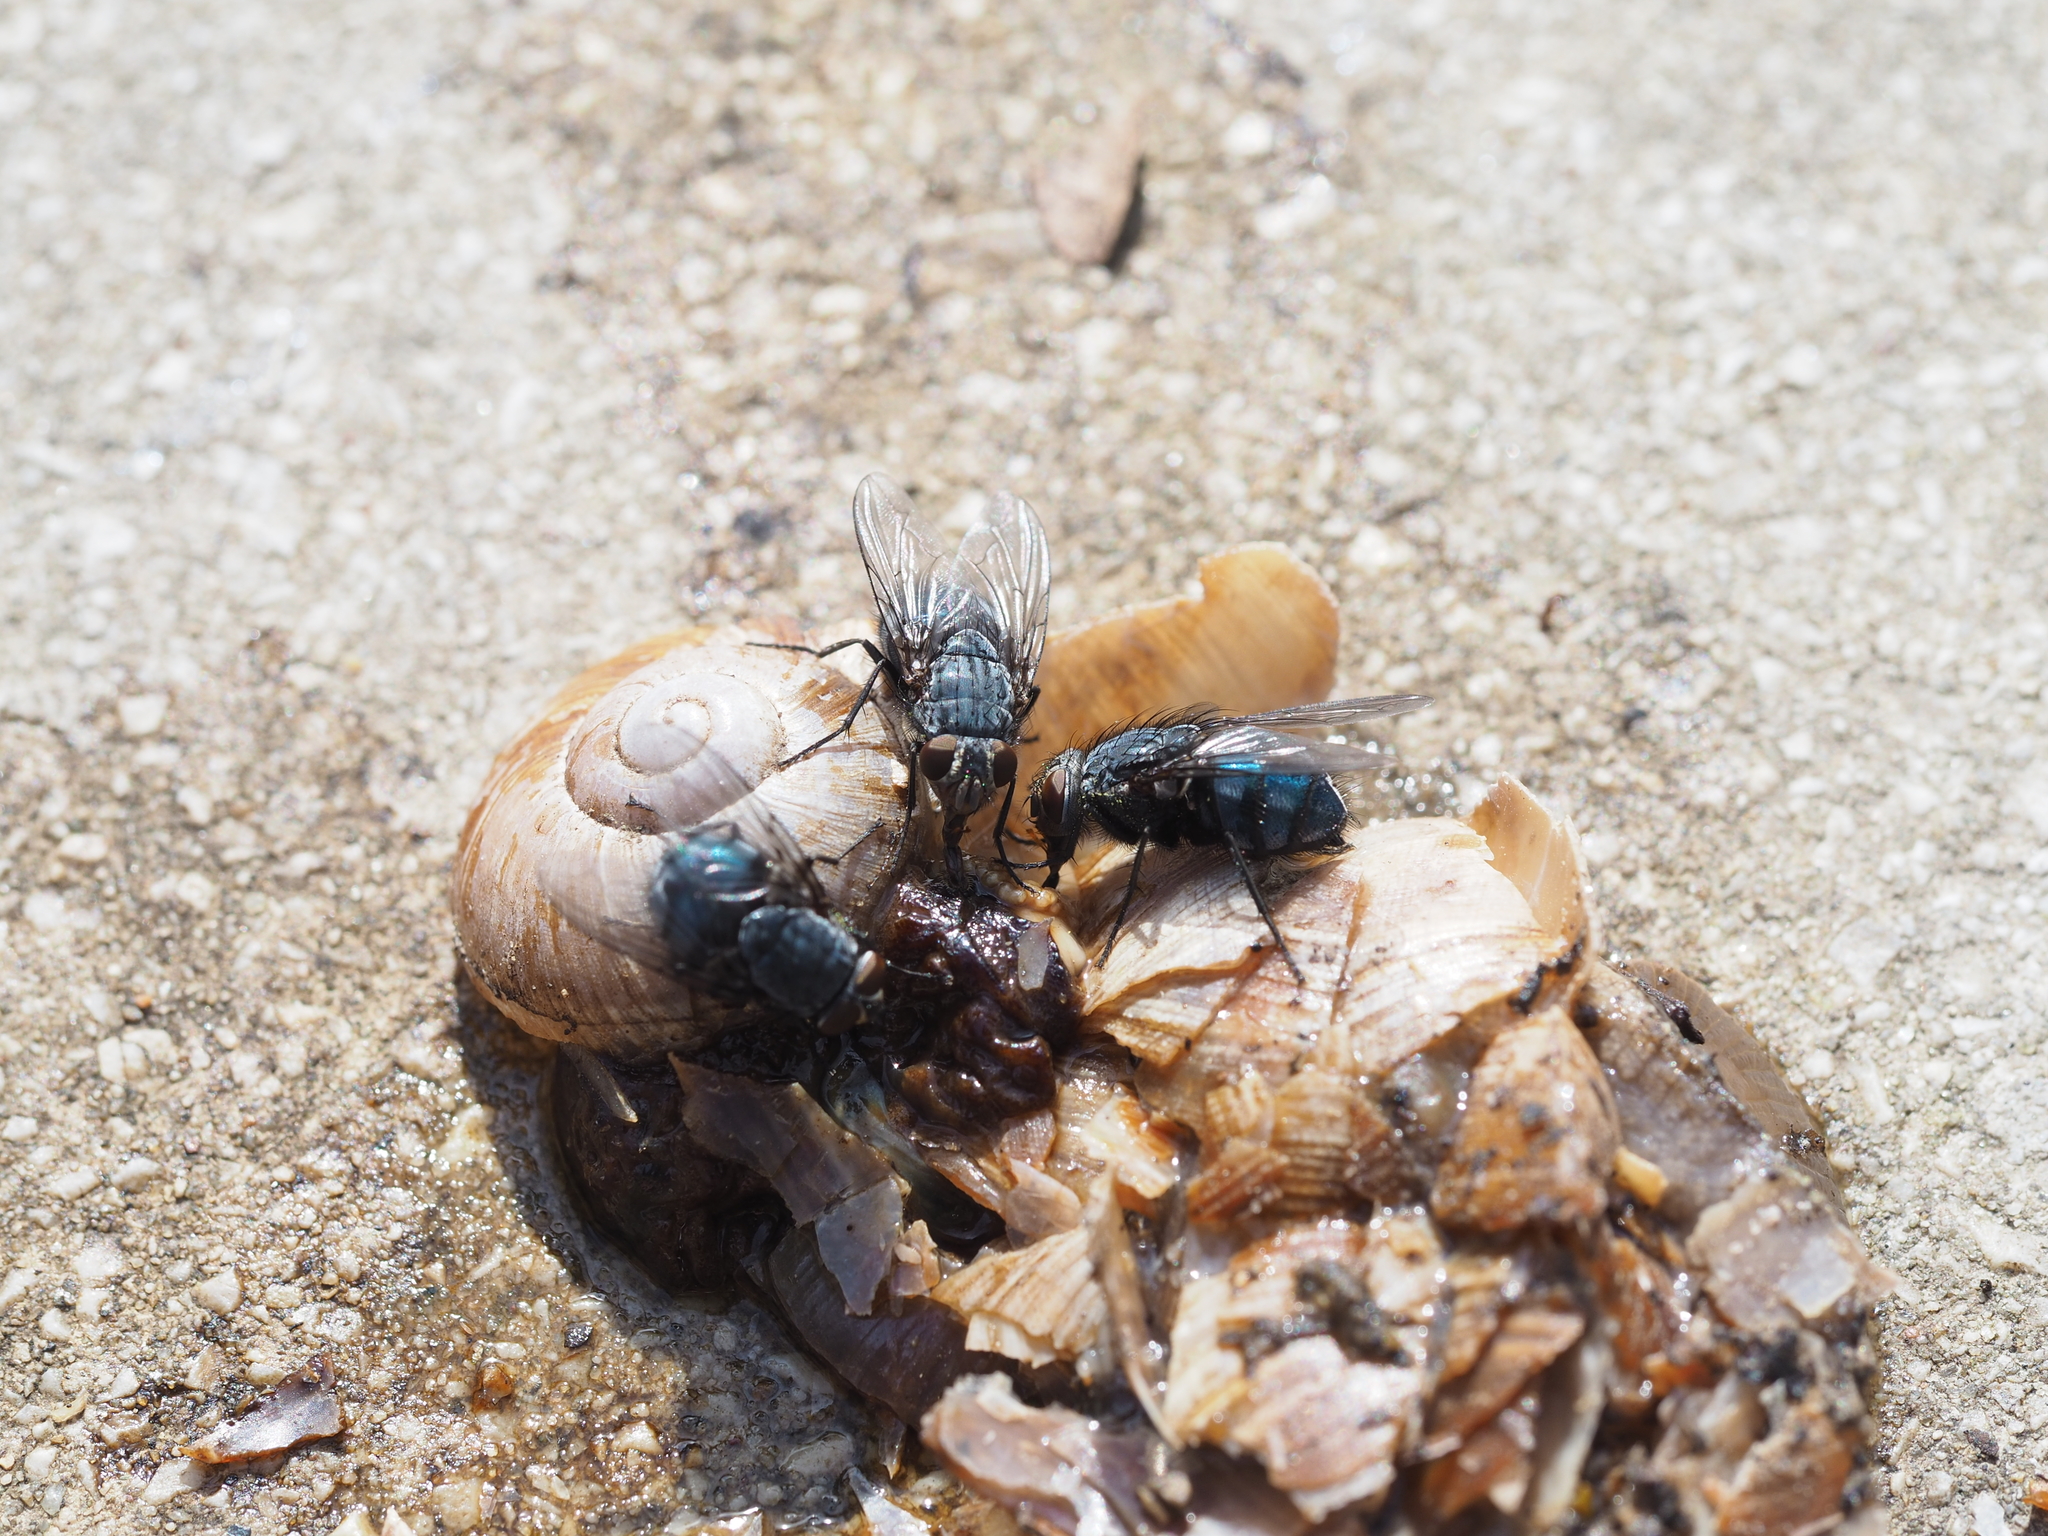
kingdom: Animalia
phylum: Arthropoda
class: Insecta
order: Diptera
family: Calliphoridae
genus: Calliphora
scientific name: Calliphora vicina
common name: Common blow flie
